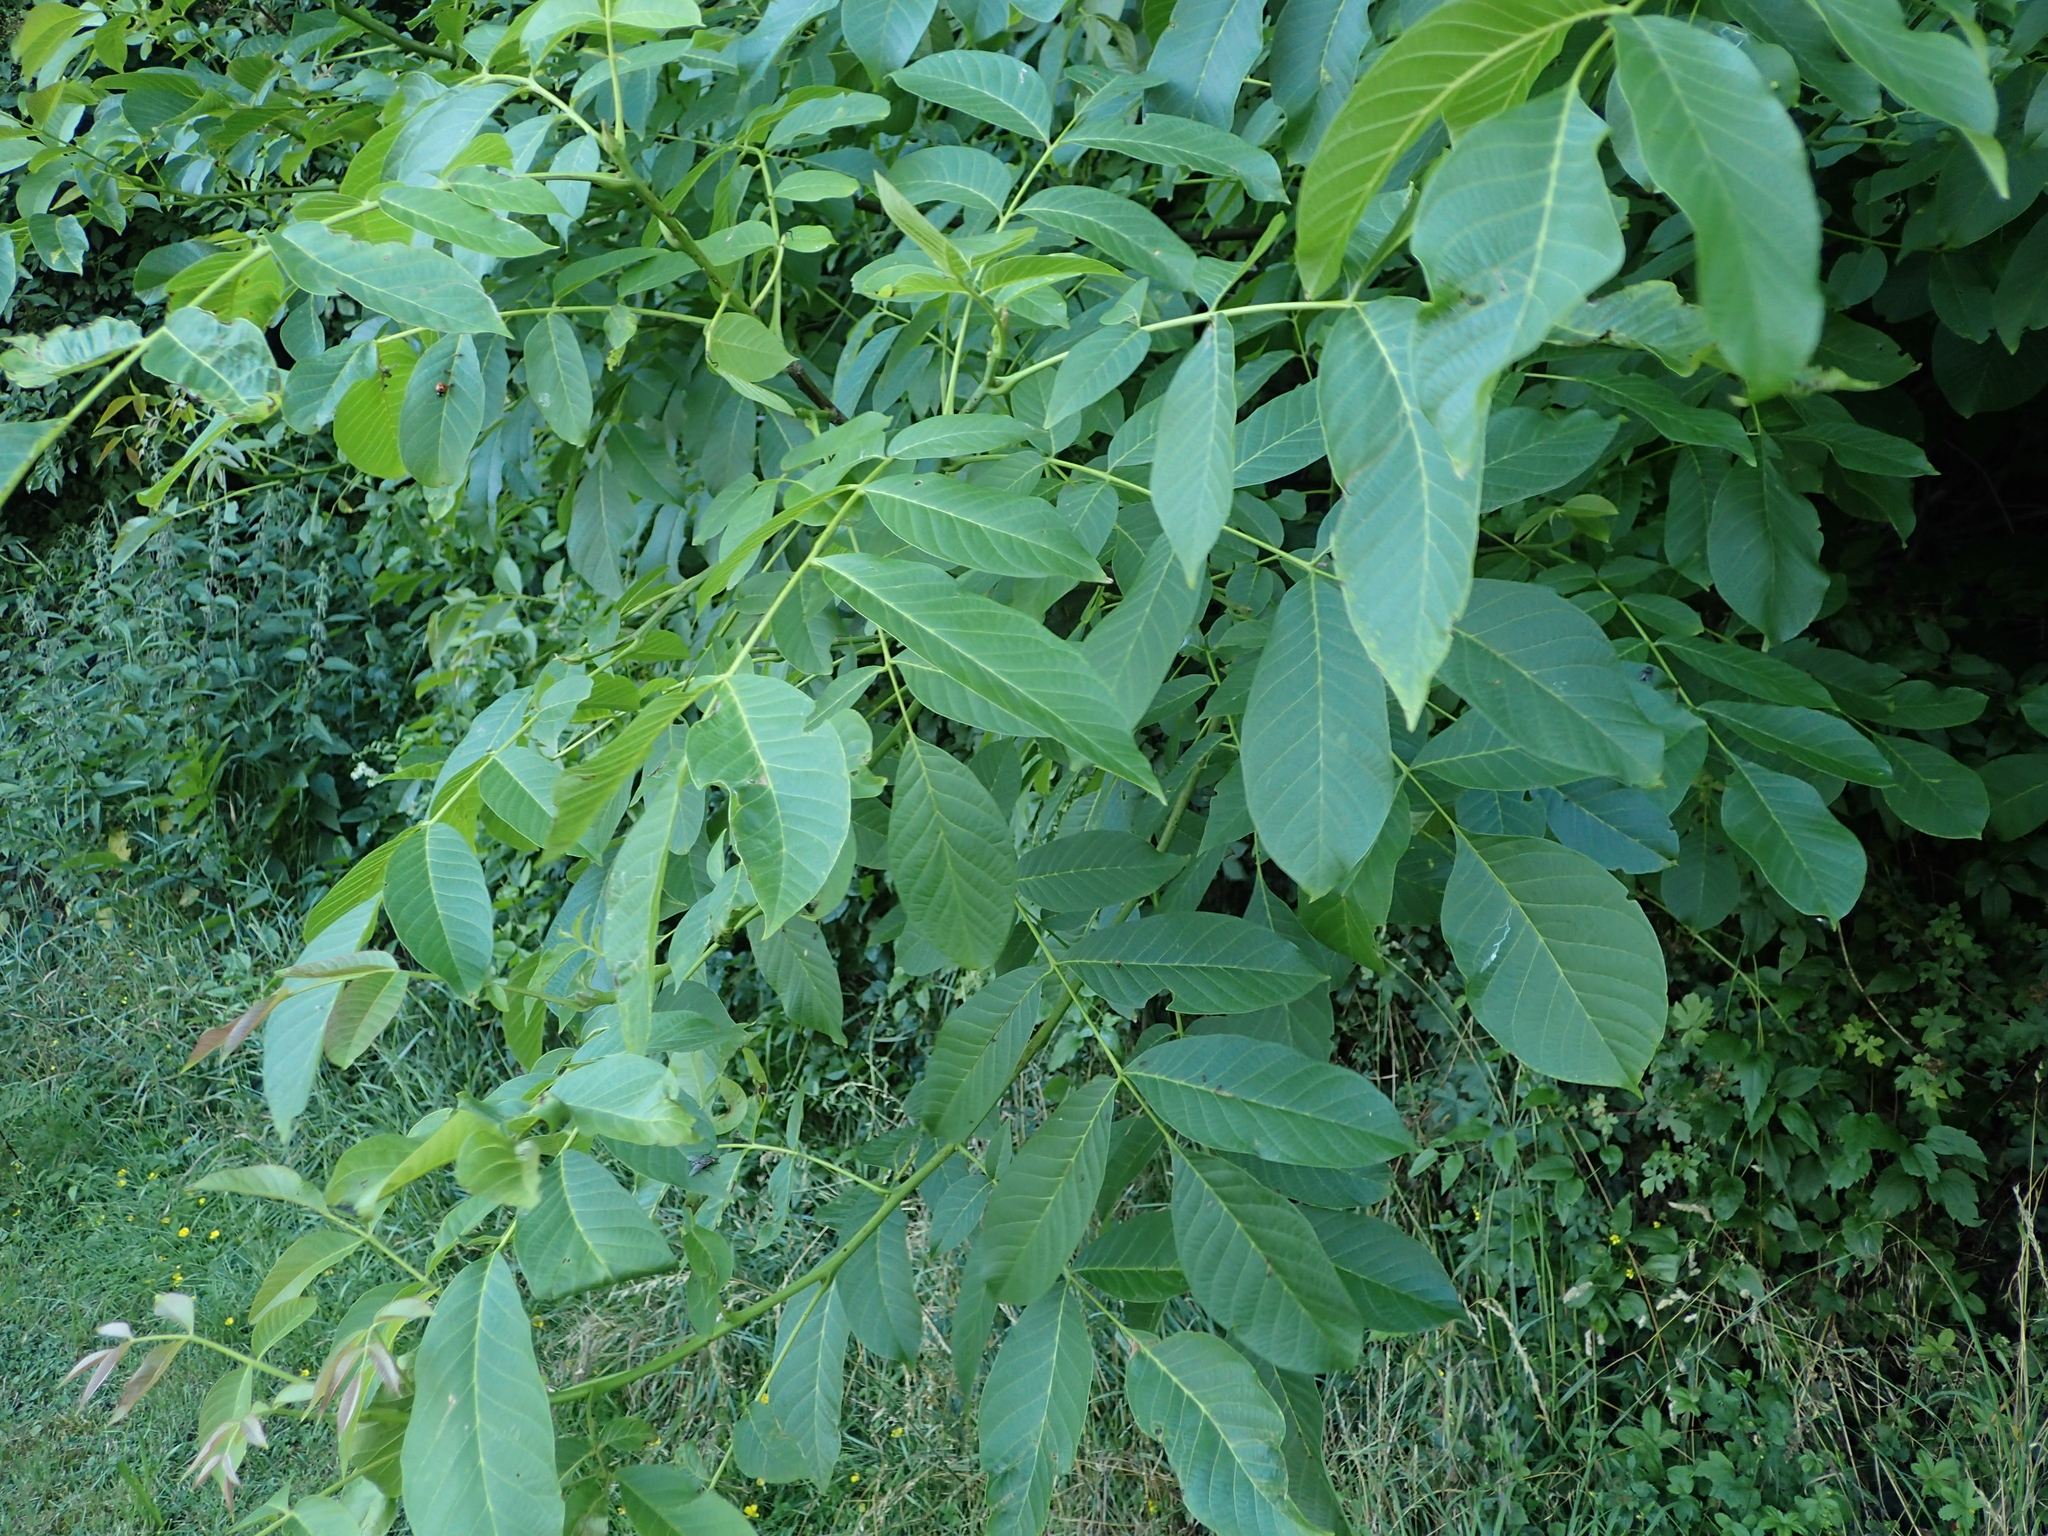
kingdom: Plantae
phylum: Tracheophyta
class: Magnoliopsida
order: Fagales
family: Juglandaceae
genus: Juglans
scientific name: Juglans regia
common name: Walnut
